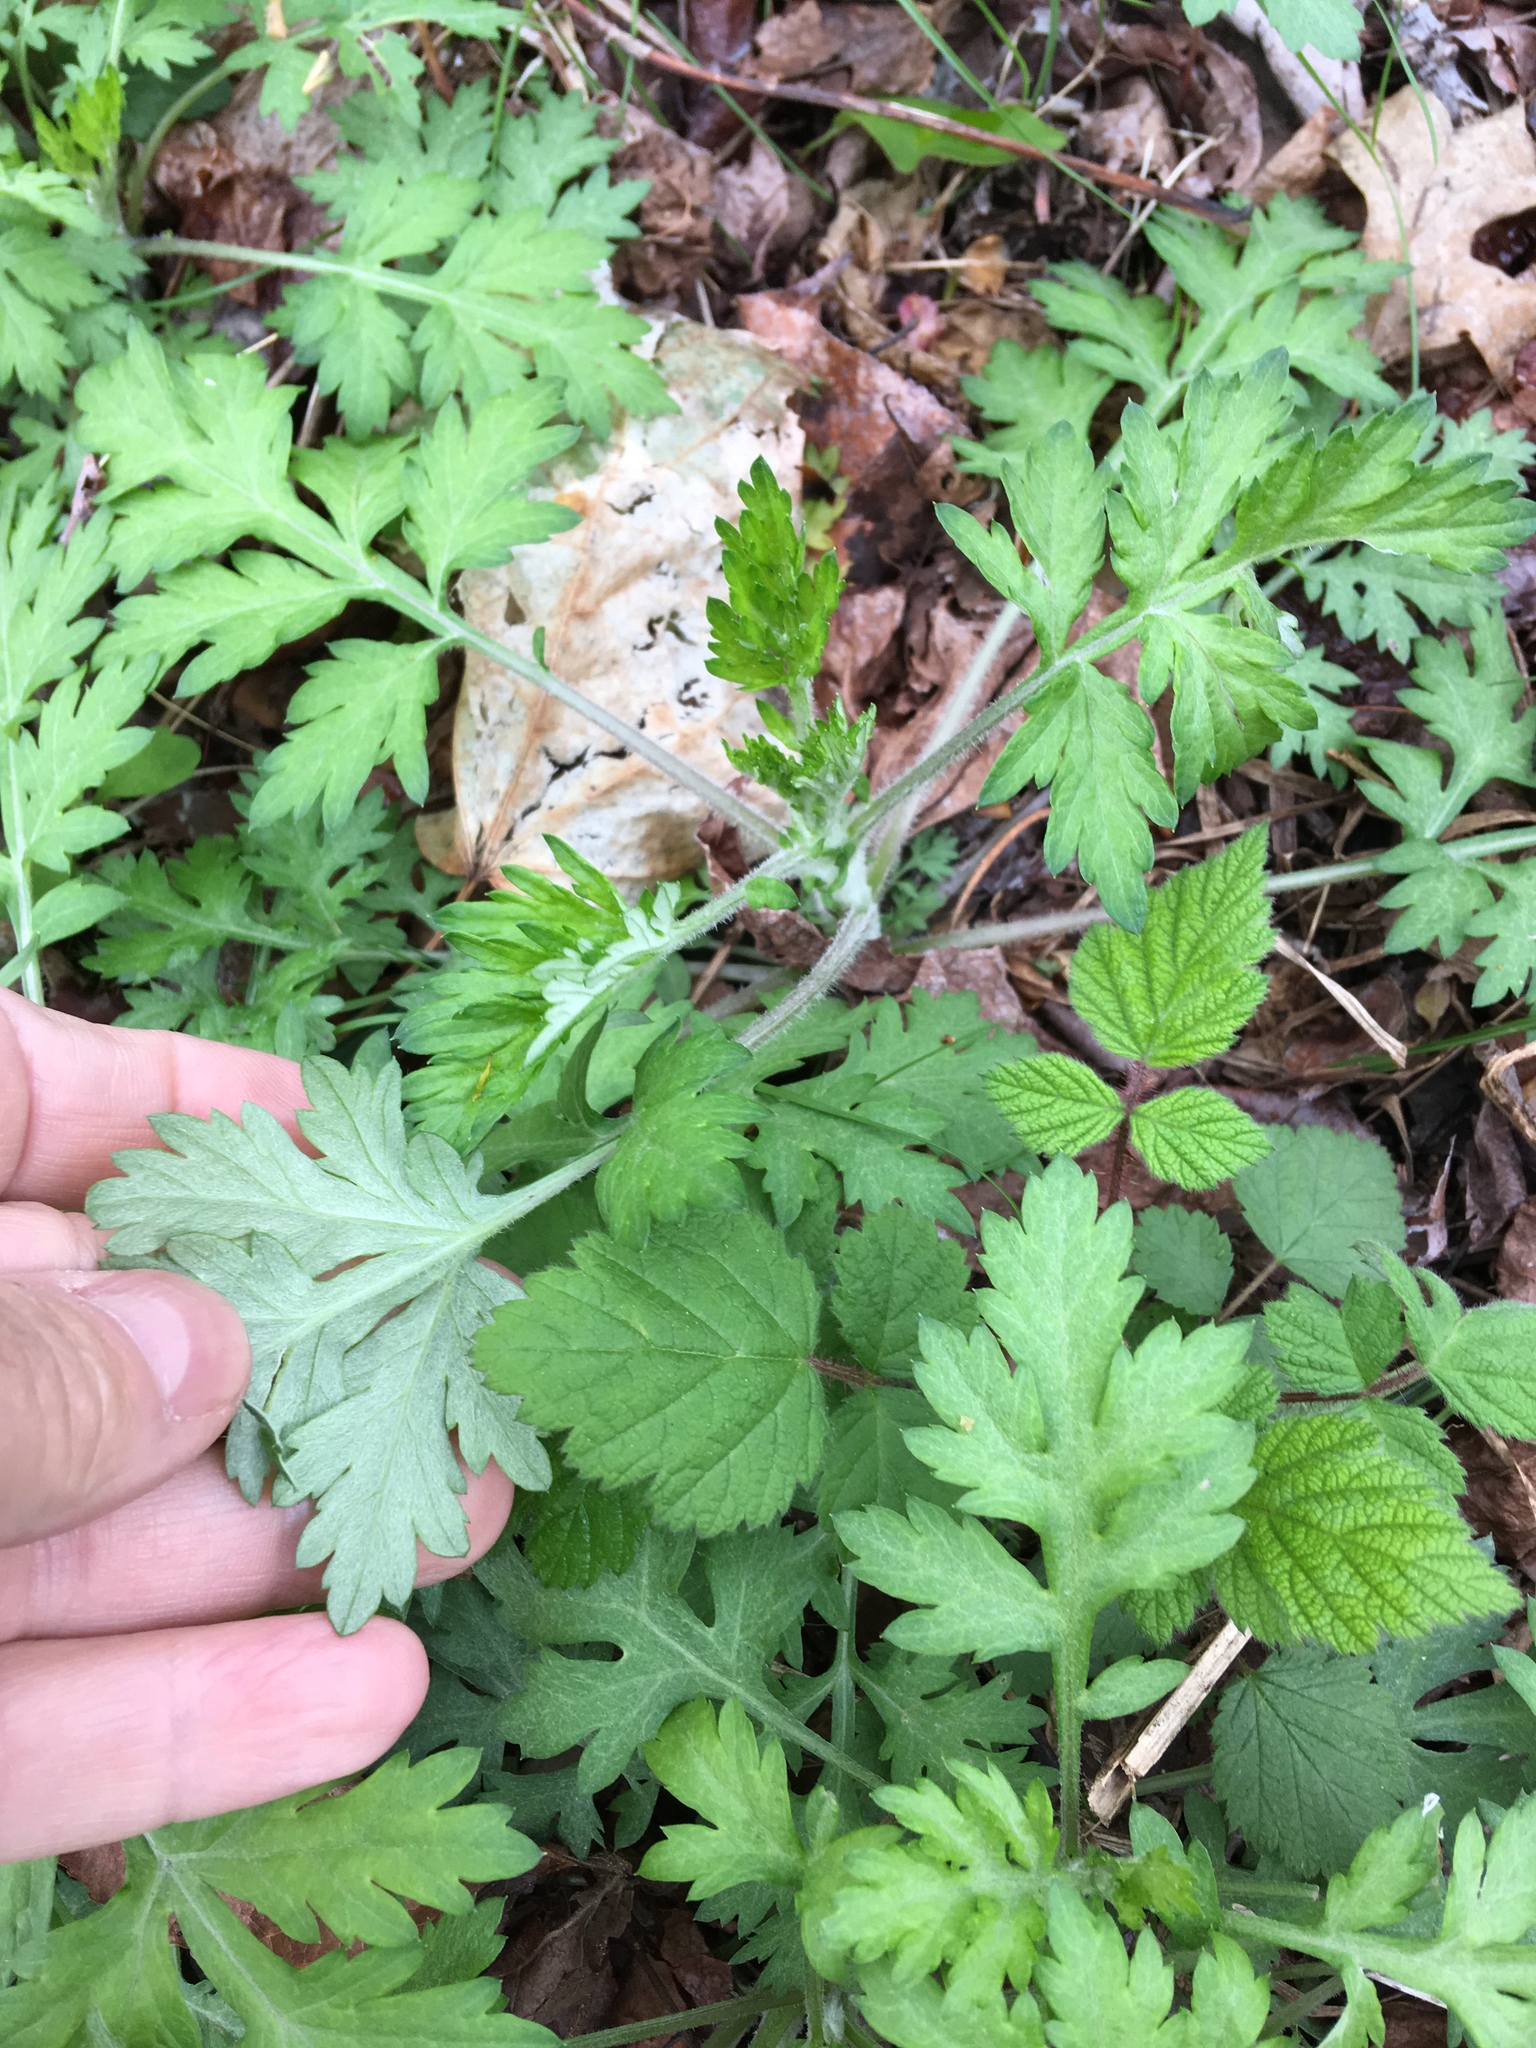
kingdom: Plantae
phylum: Tracheophyta
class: Magnoliopsida
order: Asterales
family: Asteraceae
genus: Artemisia
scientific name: Artemisia vulgaris
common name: Mugwort
